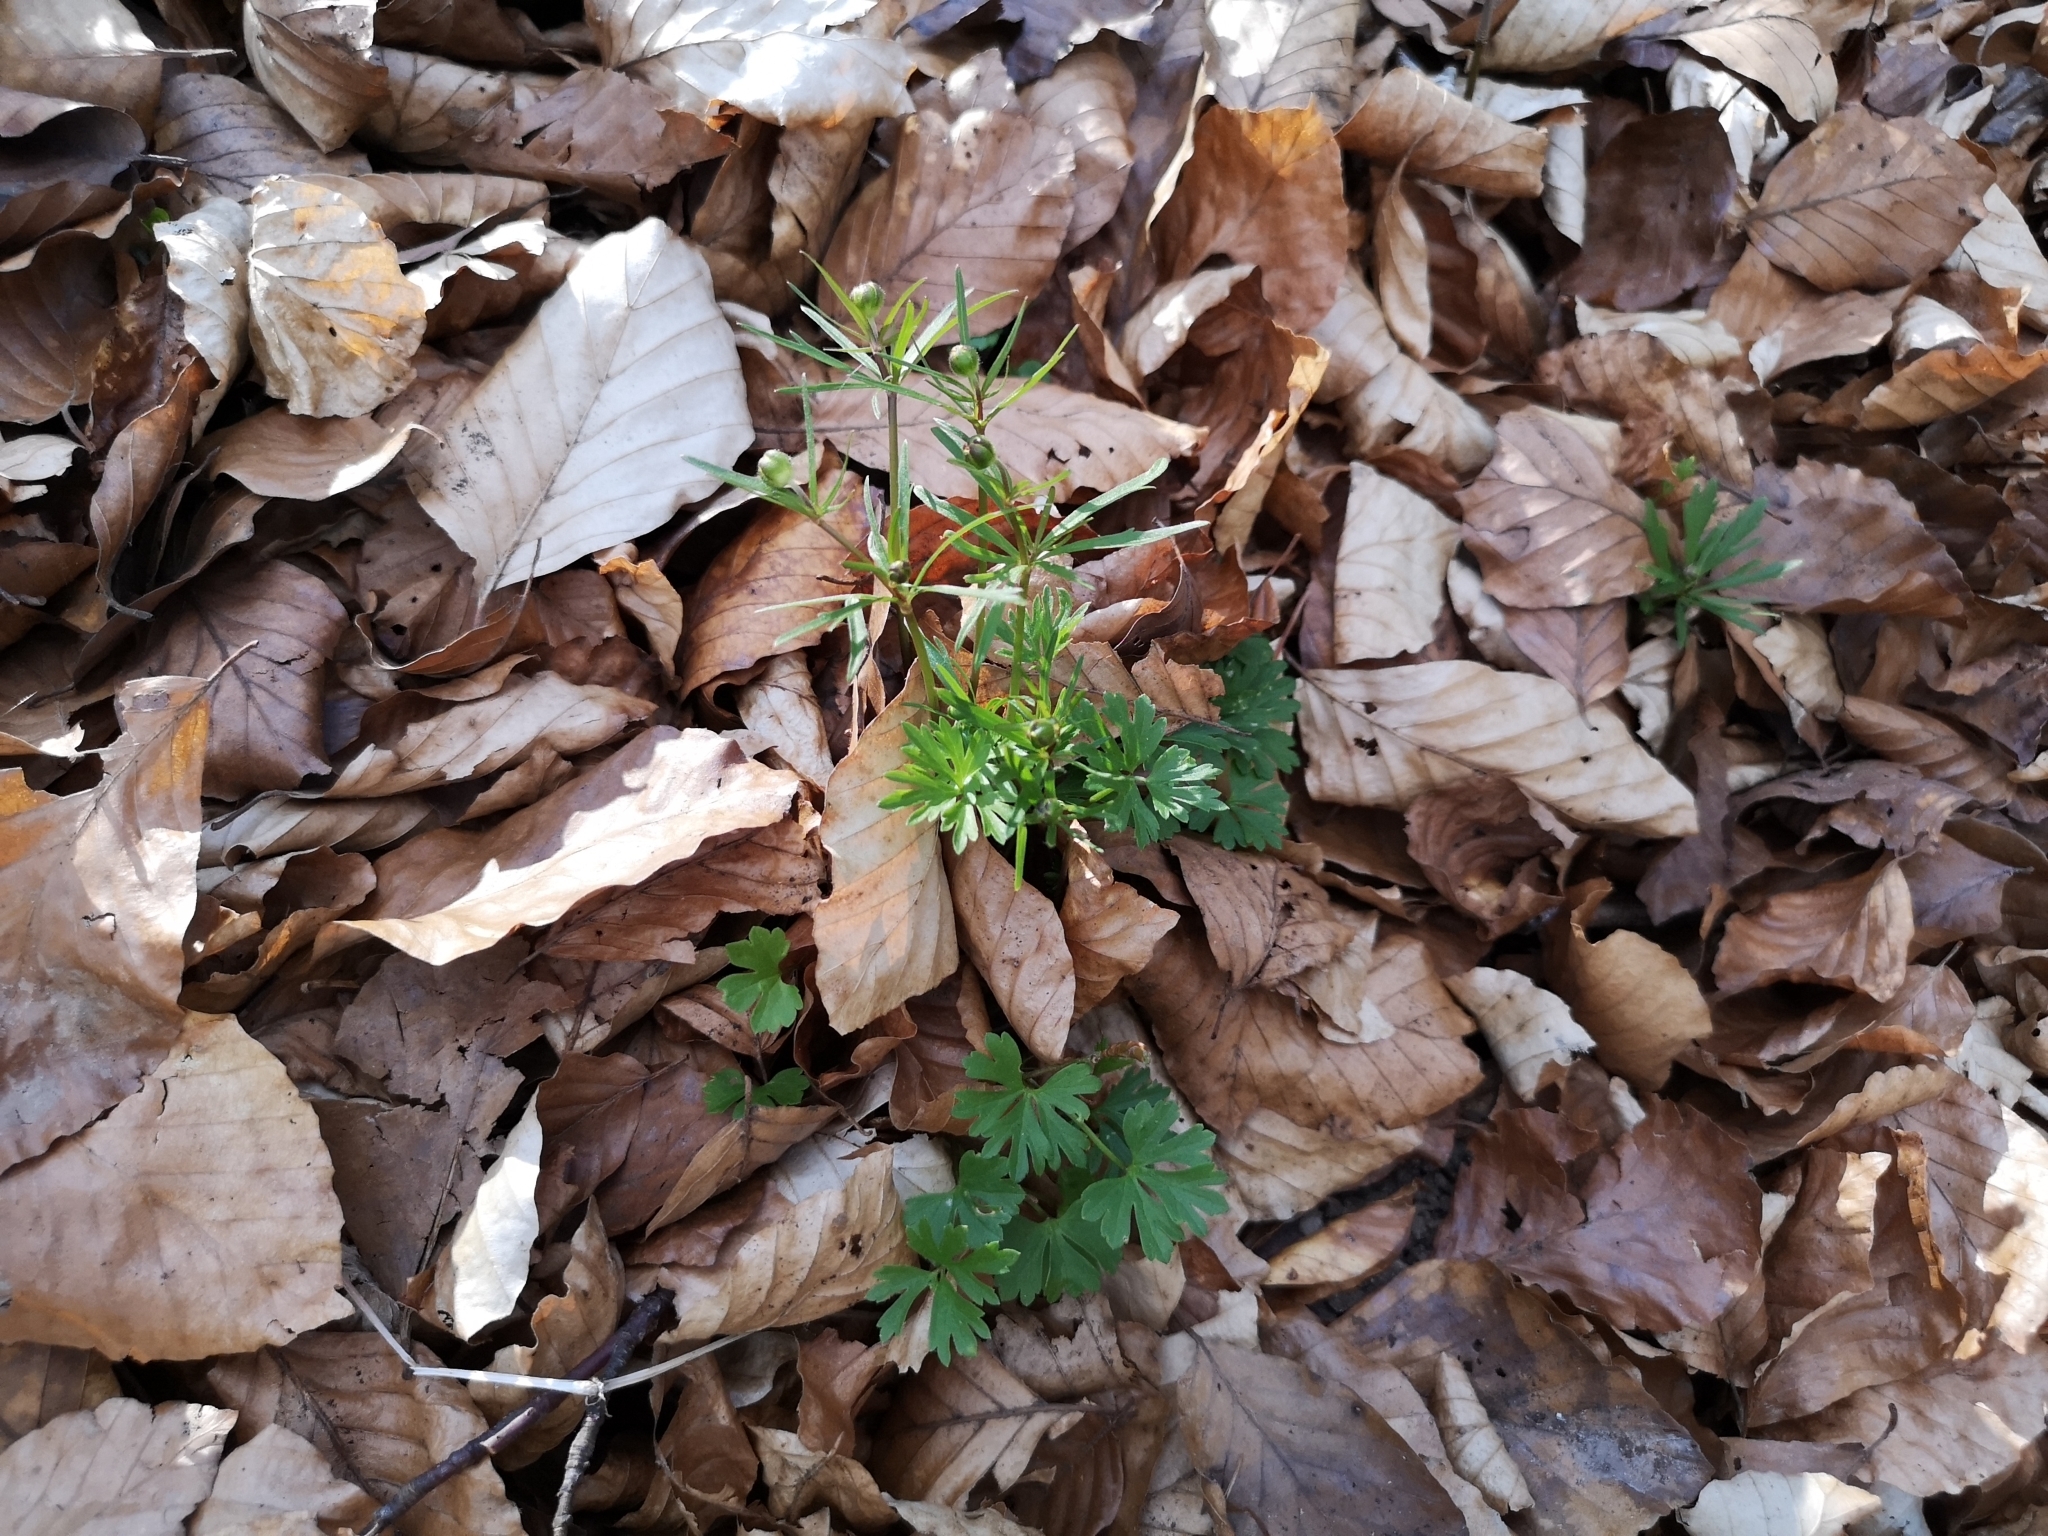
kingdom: Plantae
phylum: Tracheophyta
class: Magnoliopsida
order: Ranunculales
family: Ranunculaceae
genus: Ranunculus
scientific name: Ranunculus auricomus
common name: Goldilocks buttercup
